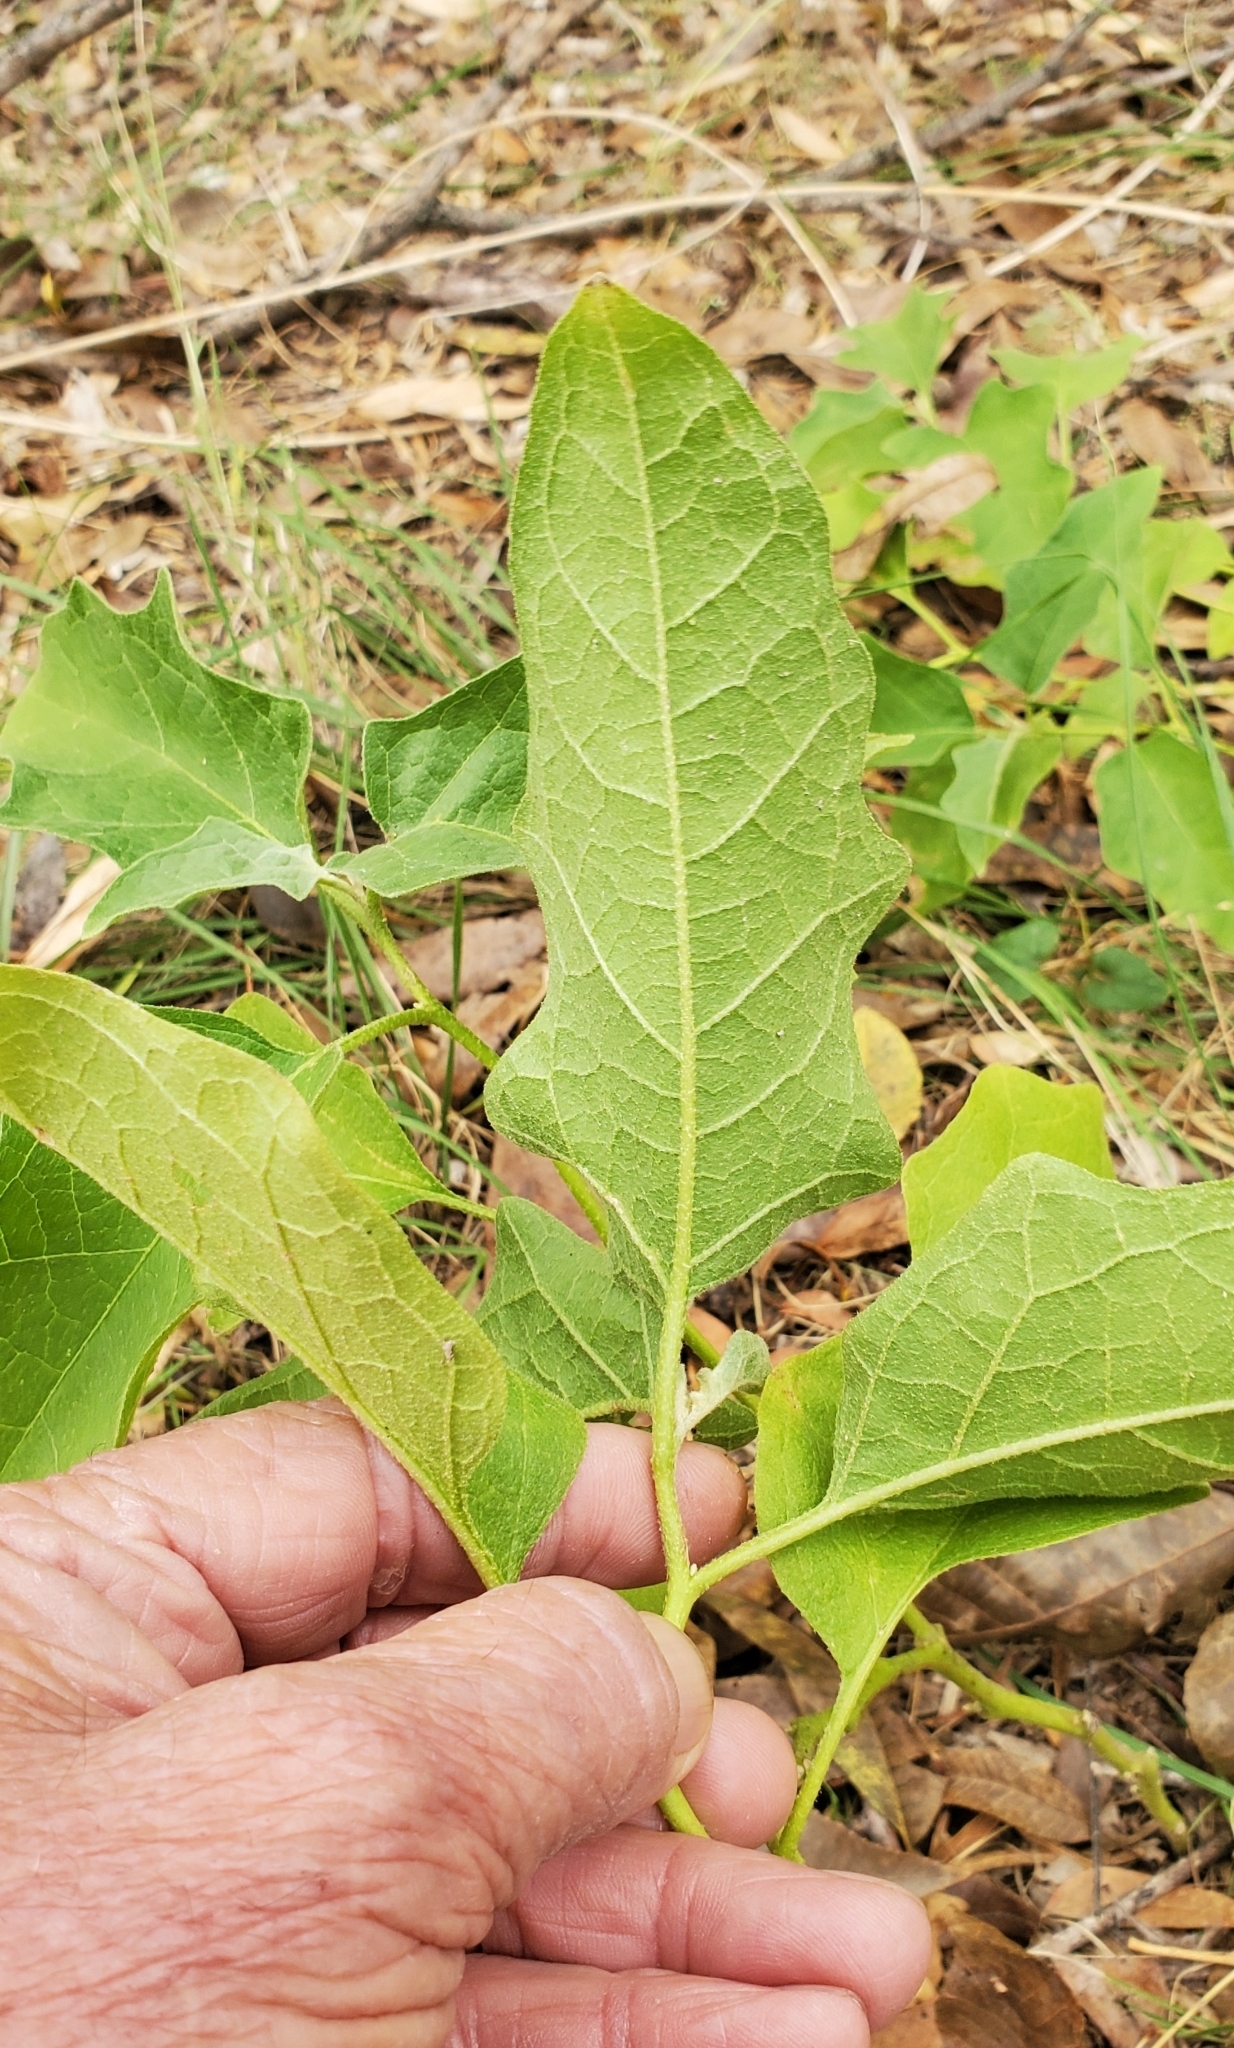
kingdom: Plantae
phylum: Tracheophyta
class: Magnoliopsida
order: Solanales
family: Solanaceae
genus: Solanum
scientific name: Solanum dimidiatum
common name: Carolina horse-nettle
